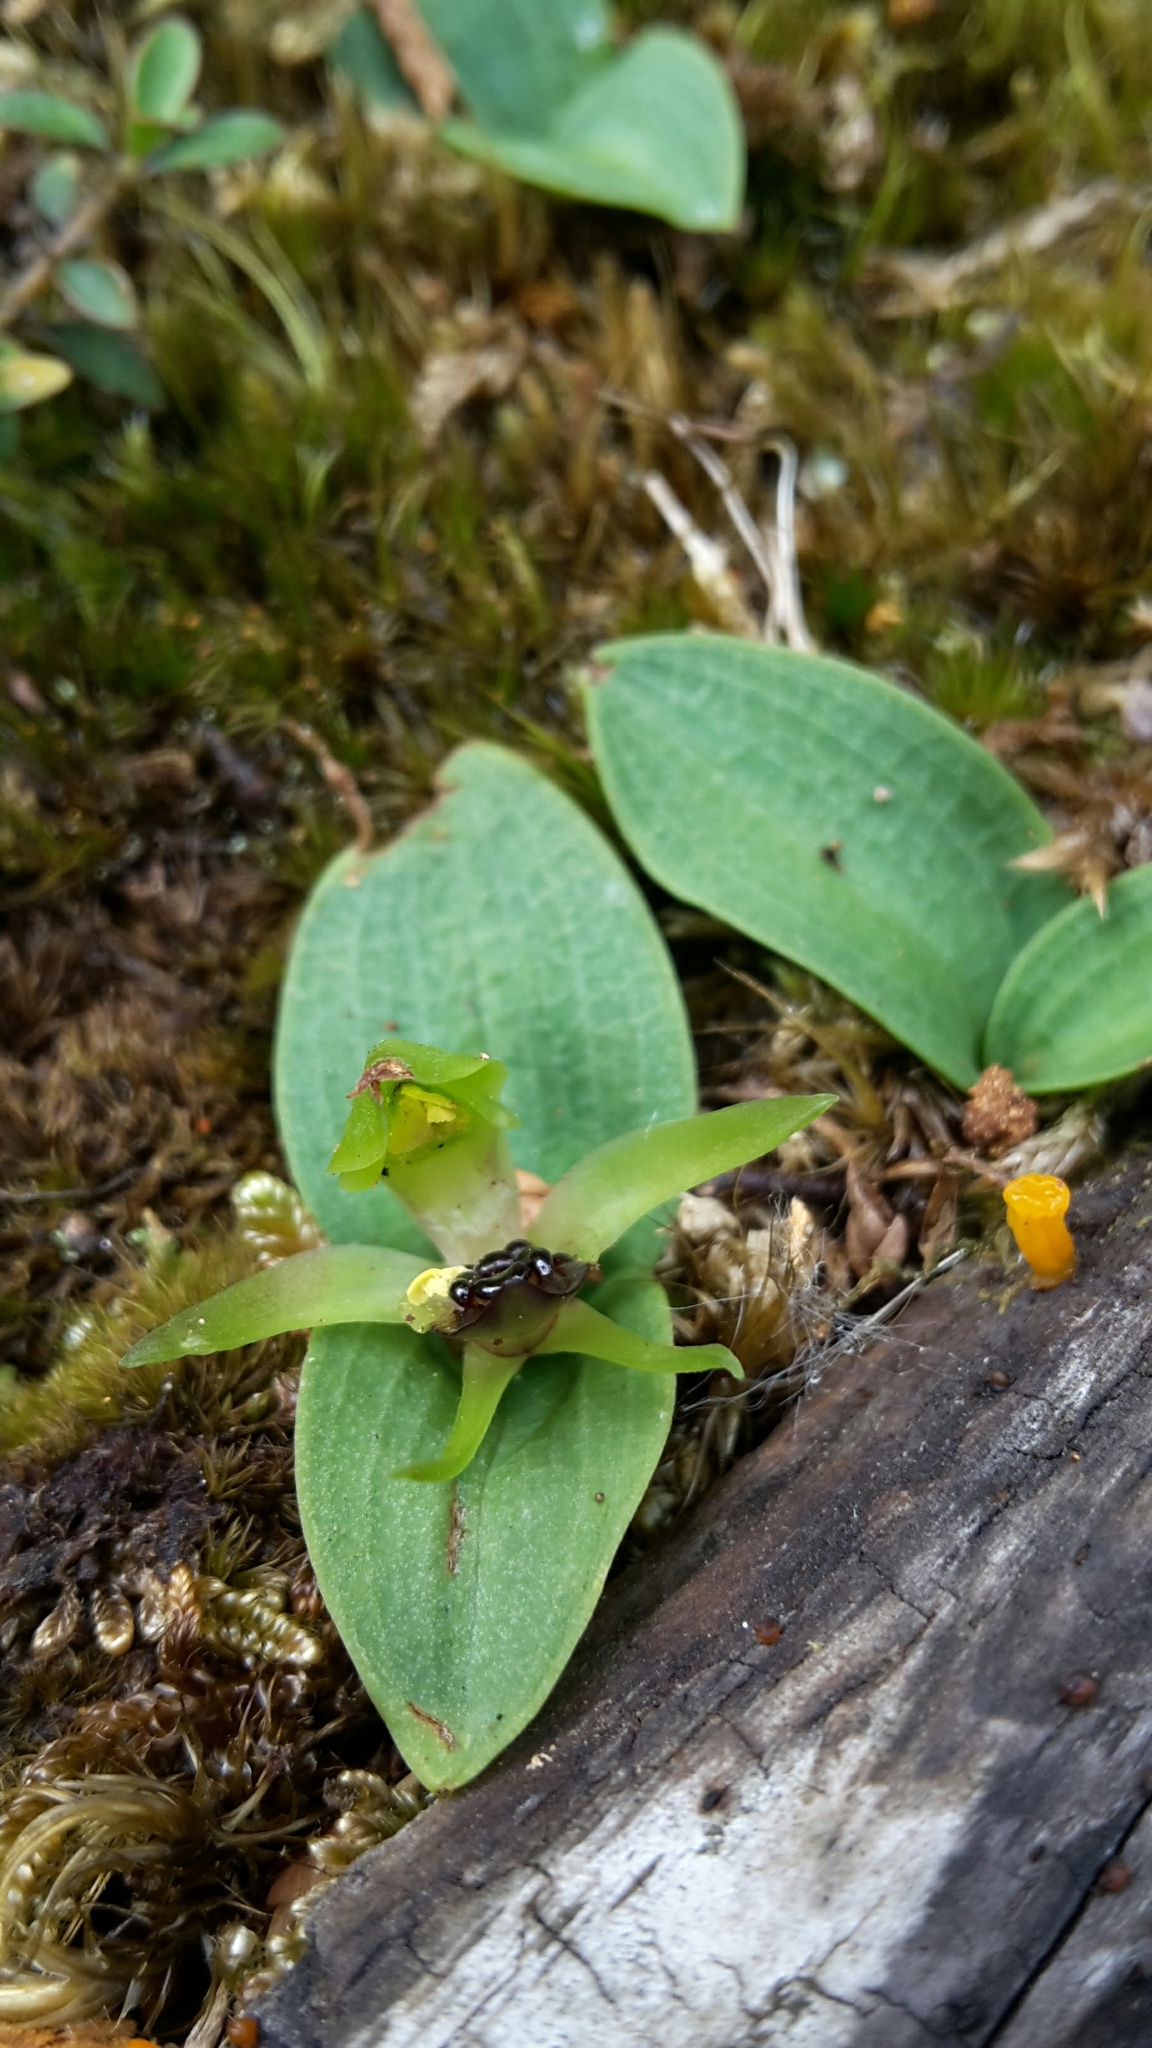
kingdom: Plantae
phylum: Tracheophyta
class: Liliopsida
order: Asparagales
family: Orchidaceae
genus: Chiloglottis
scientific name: Chiloglottis cornuta
